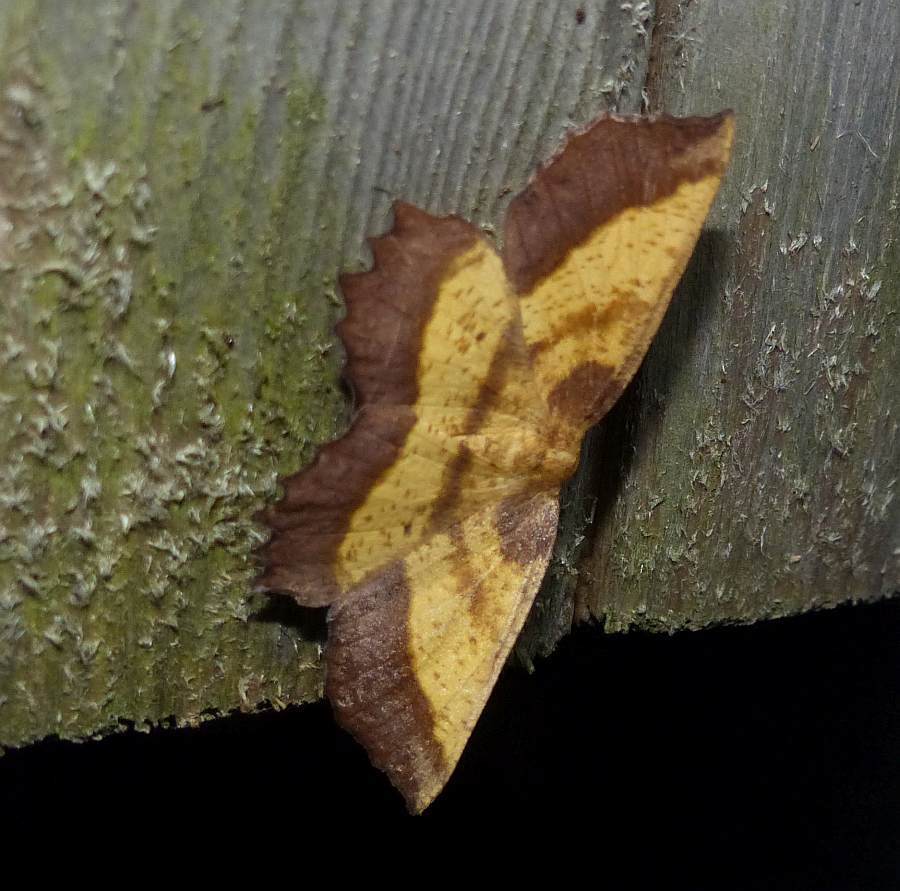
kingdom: Animalia
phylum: Arthropoda
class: Insecta
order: Lepidoptera
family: Geometridae
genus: Euchlaena
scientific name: Euchlaena serrata
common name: Saw wing
